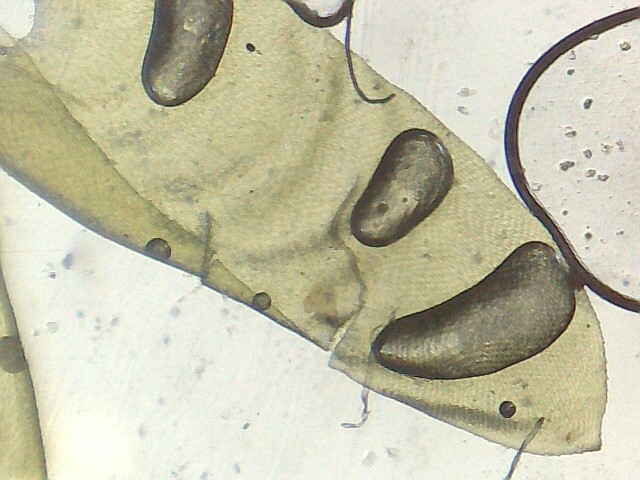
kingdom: Plantae
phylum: Bryophyta
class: Bryopsida
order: Hypnales
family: Neckeraceae
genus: Exsertotheca
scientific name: Exsertotheca crispa
